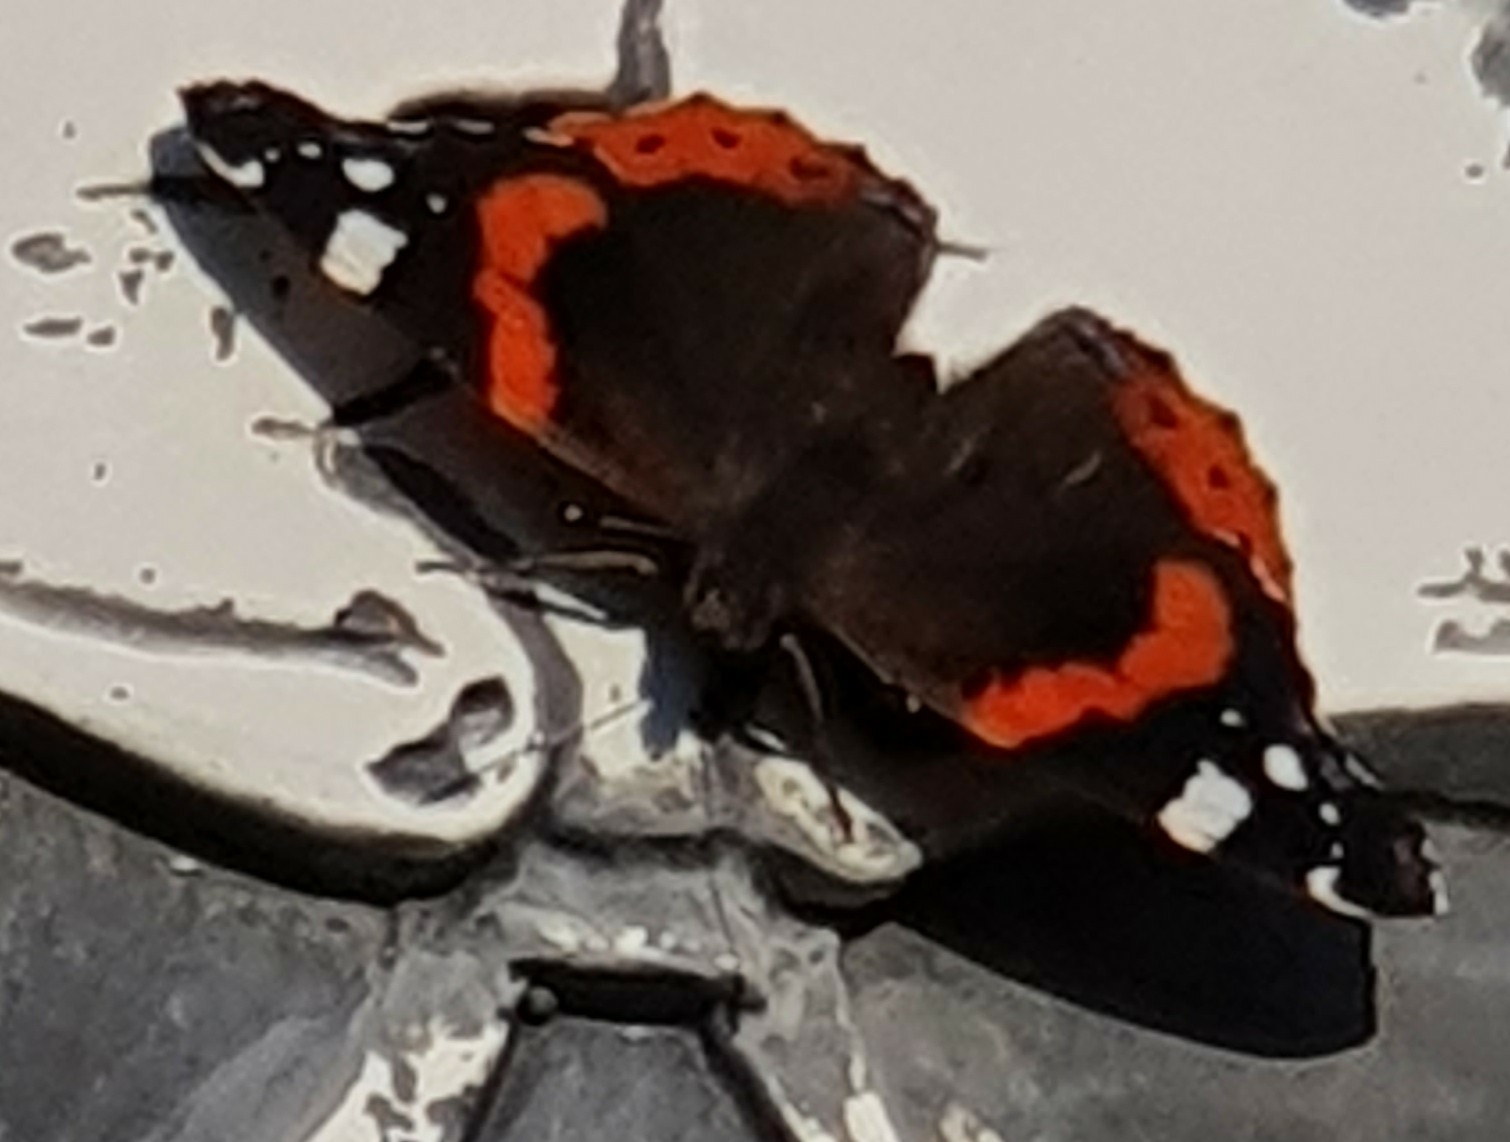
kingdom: Animalia
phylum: Arthropoda
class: Insecta
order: Lepidoptera
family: Nymphalidae
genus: Vanessa
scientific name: Vanessa atalanta
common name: Red admiral
